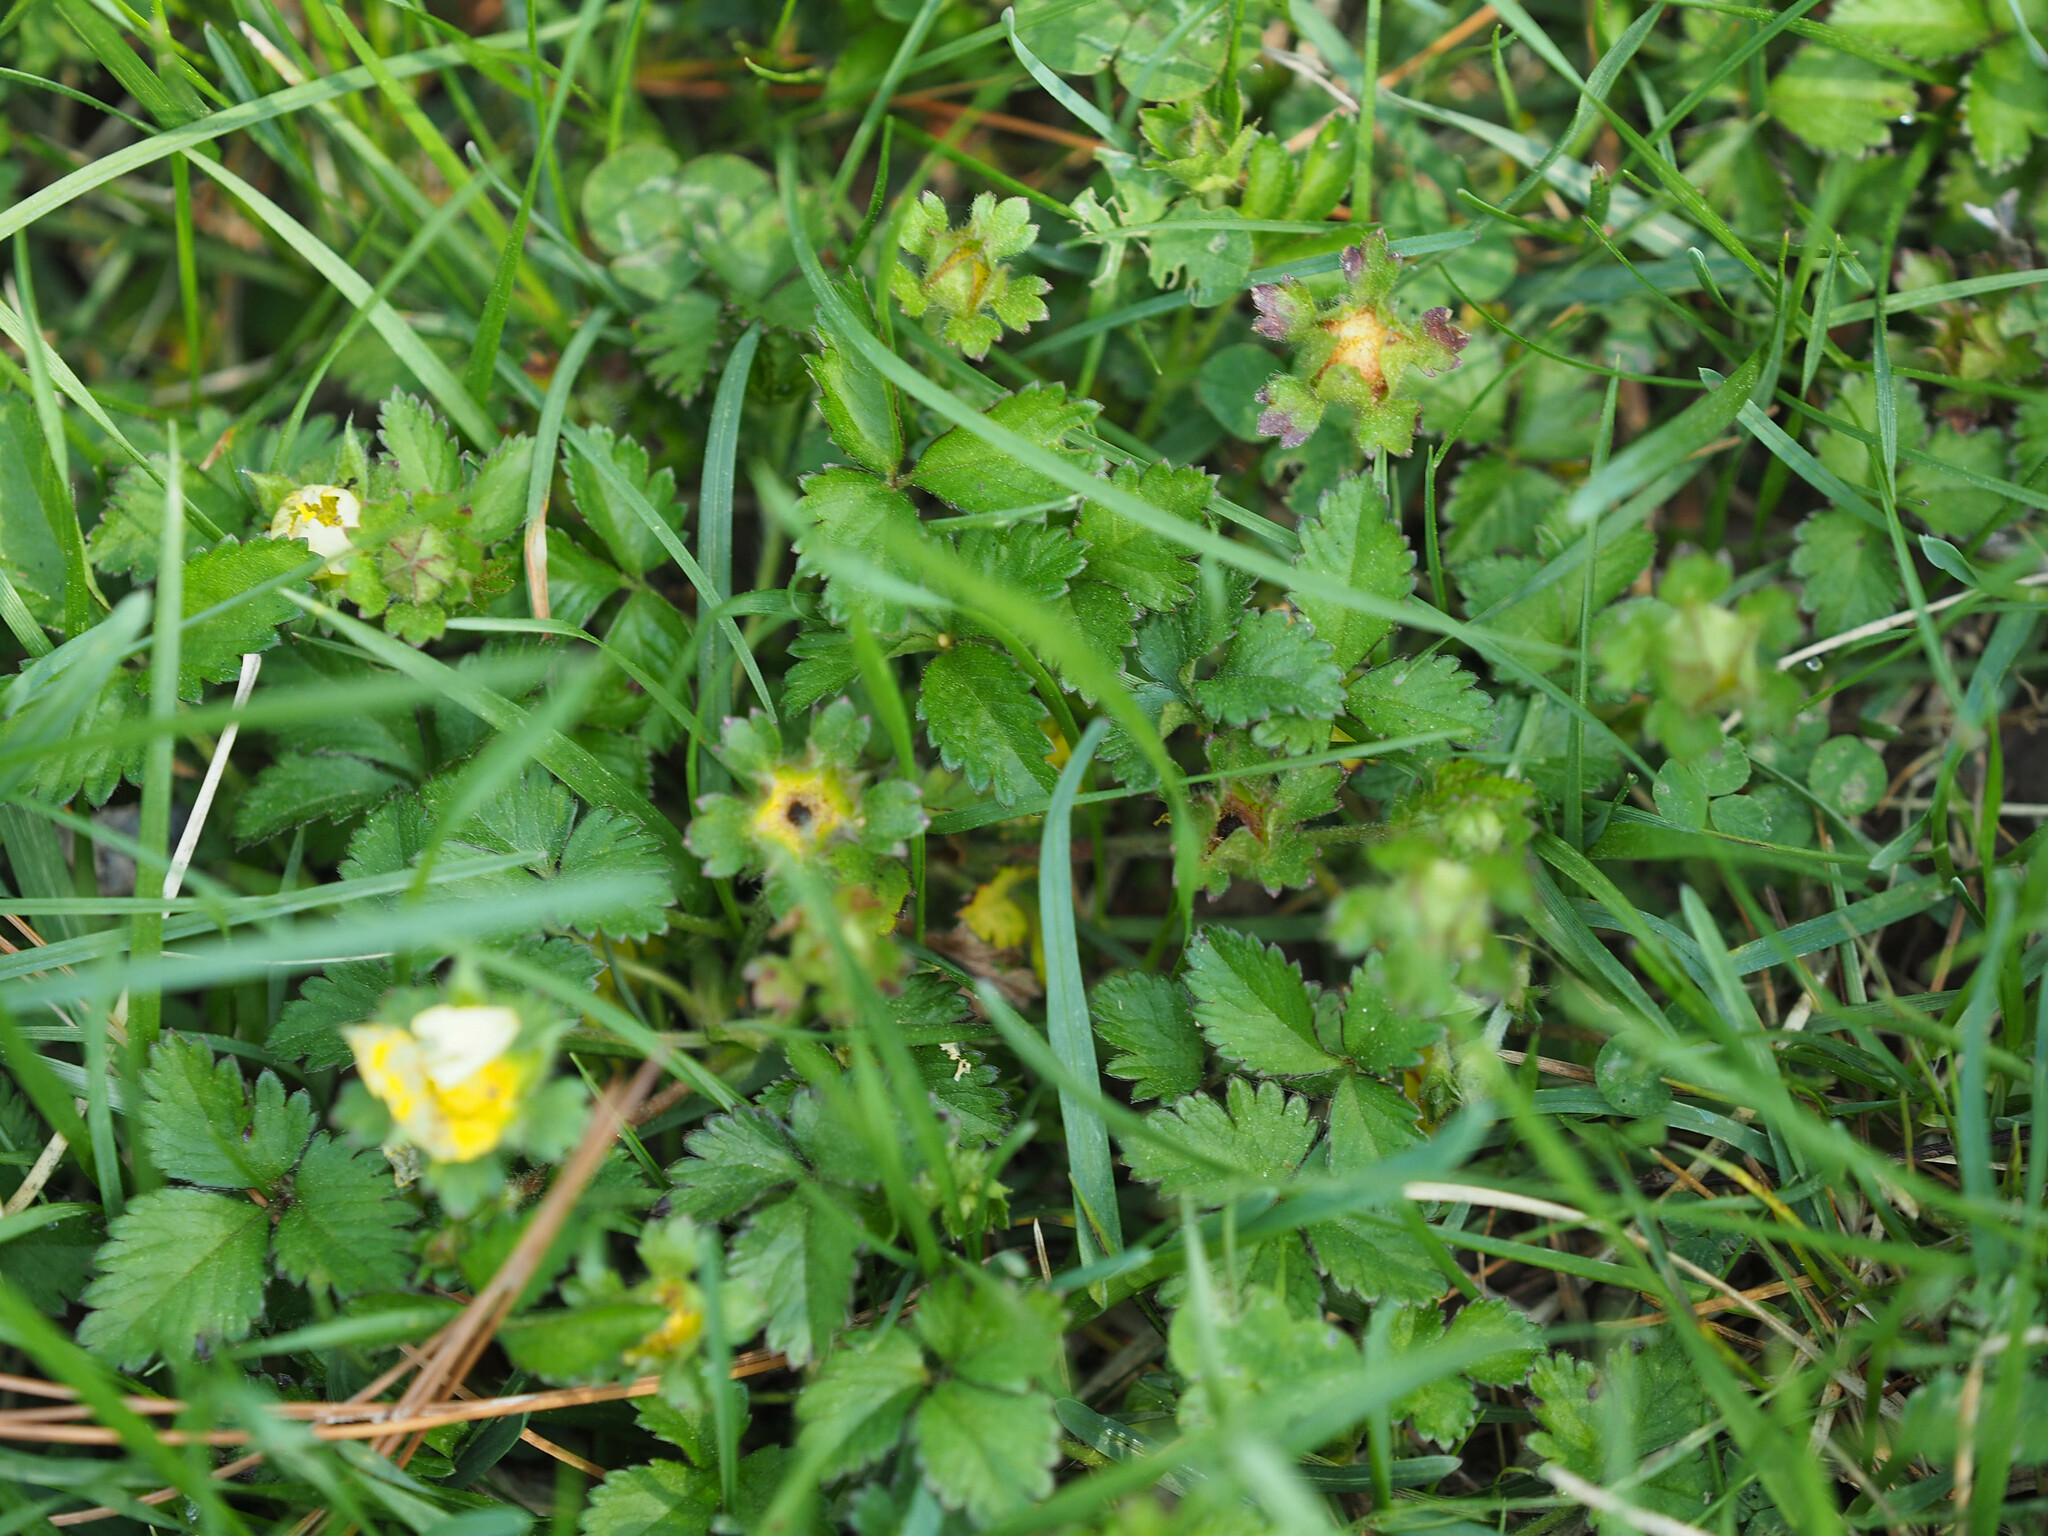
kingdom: Plantae
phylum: Tracheophyta
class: Magnoliopsida
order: Rosales
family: Rosaceae
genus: Potentilla
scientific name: Potentilla indica
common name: Yellow-flowered strawberry
